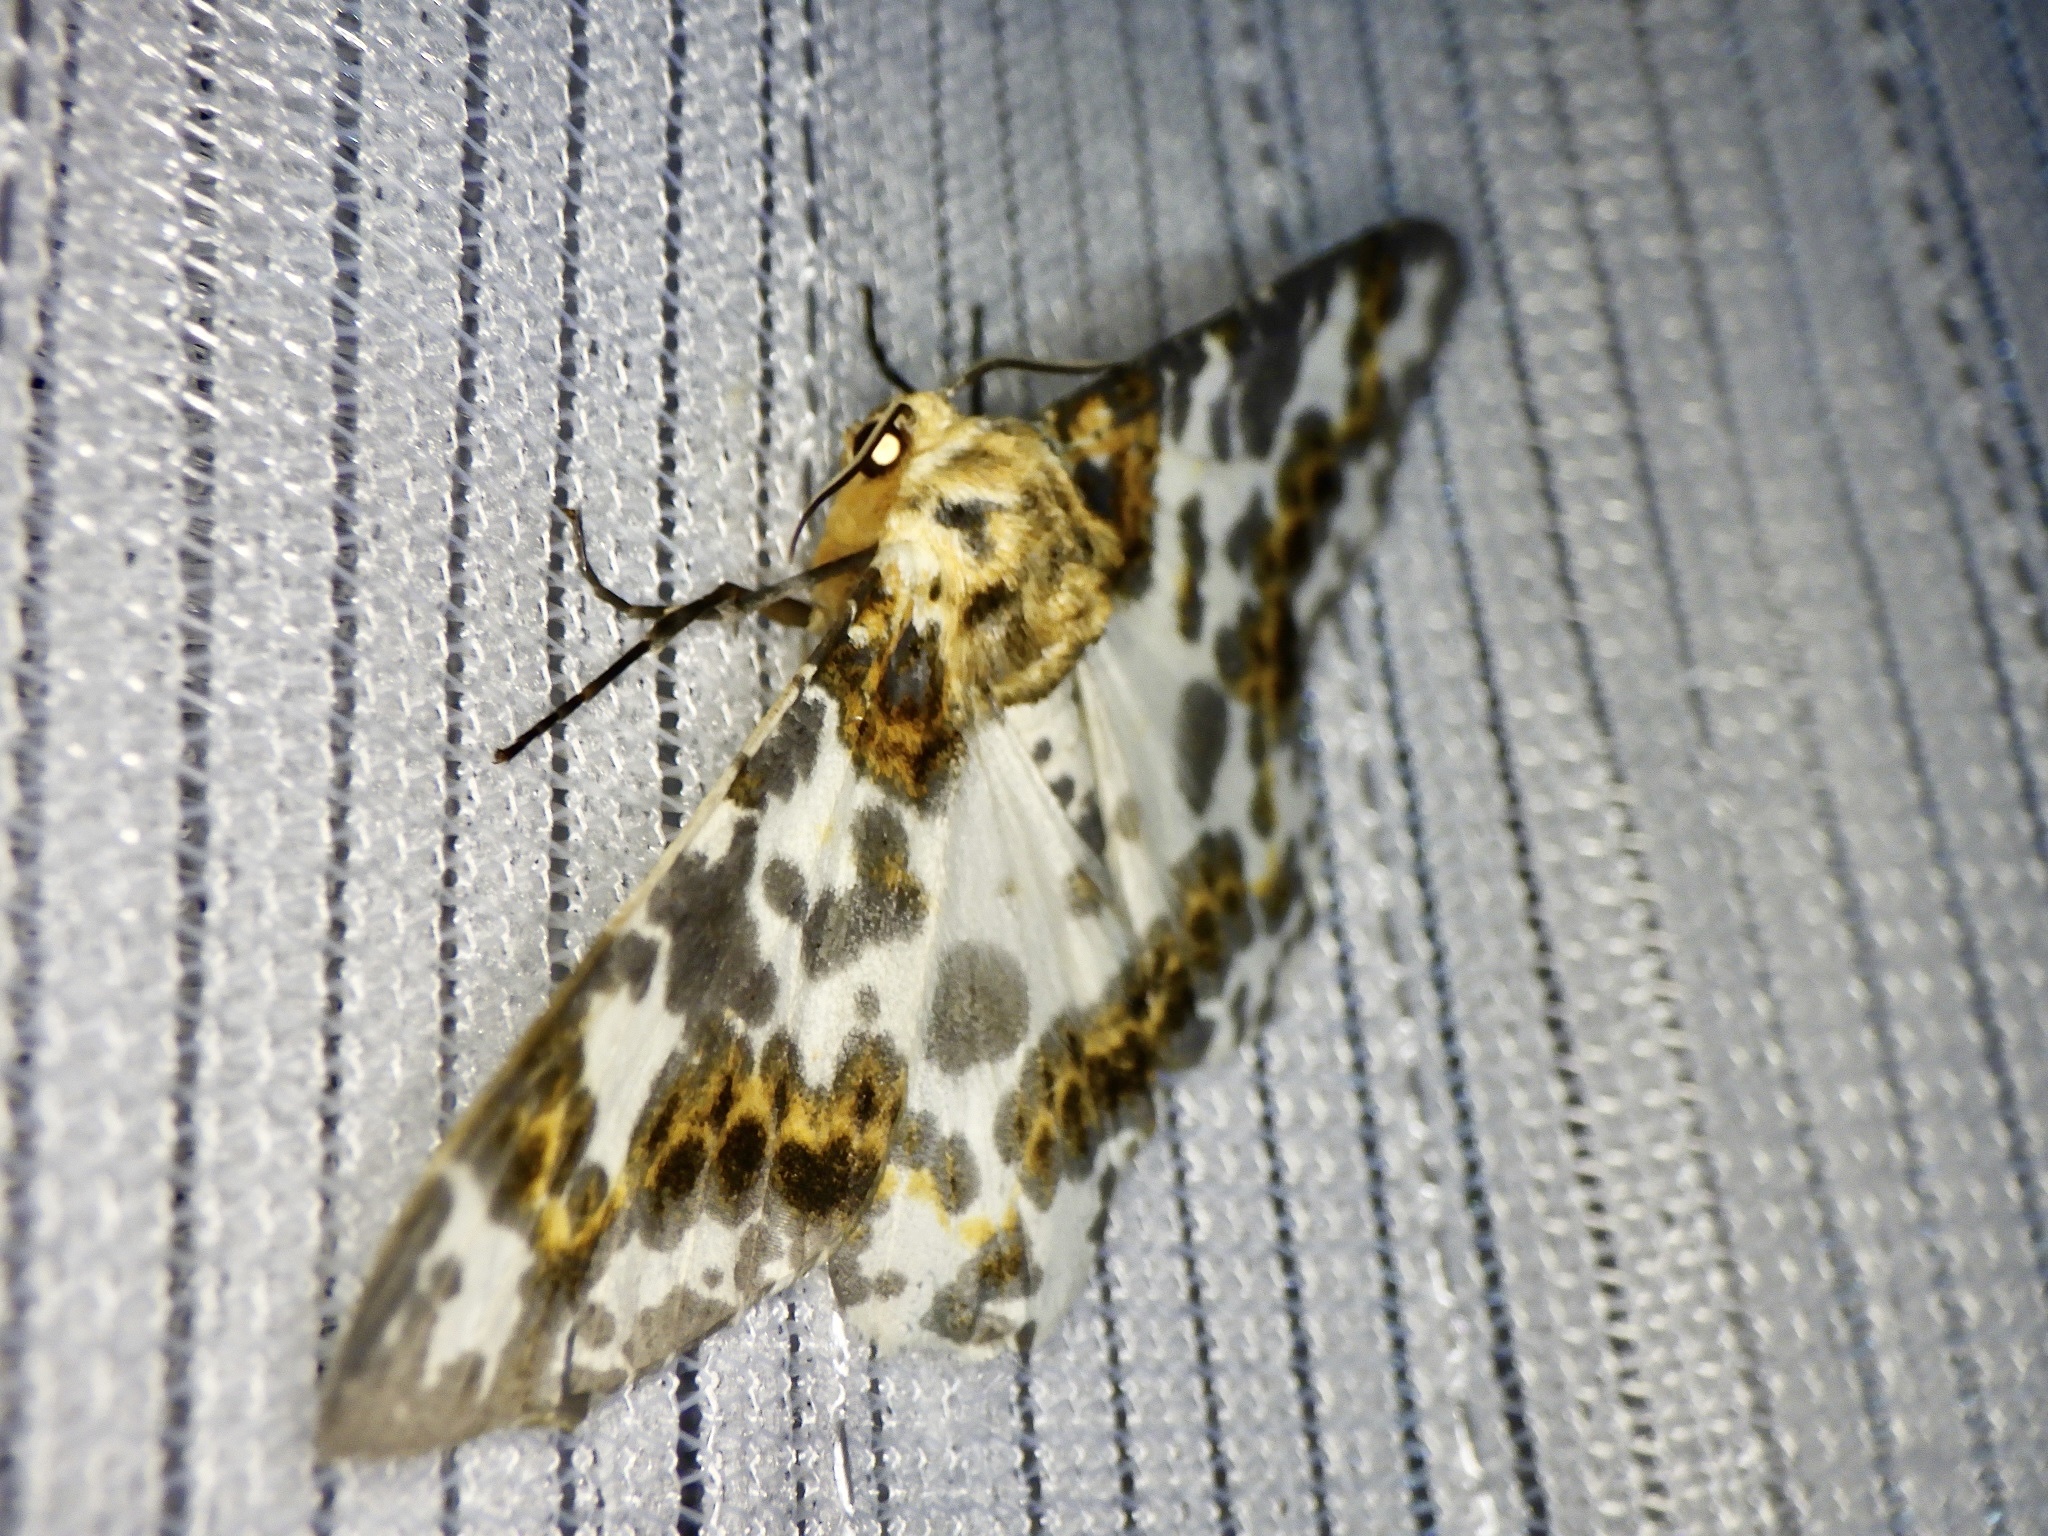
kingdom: Animalia
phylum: Arthropoda
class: Insecta
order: Lepidoptera
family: Geometridae
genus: Biston
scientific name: Biston panterinaria
